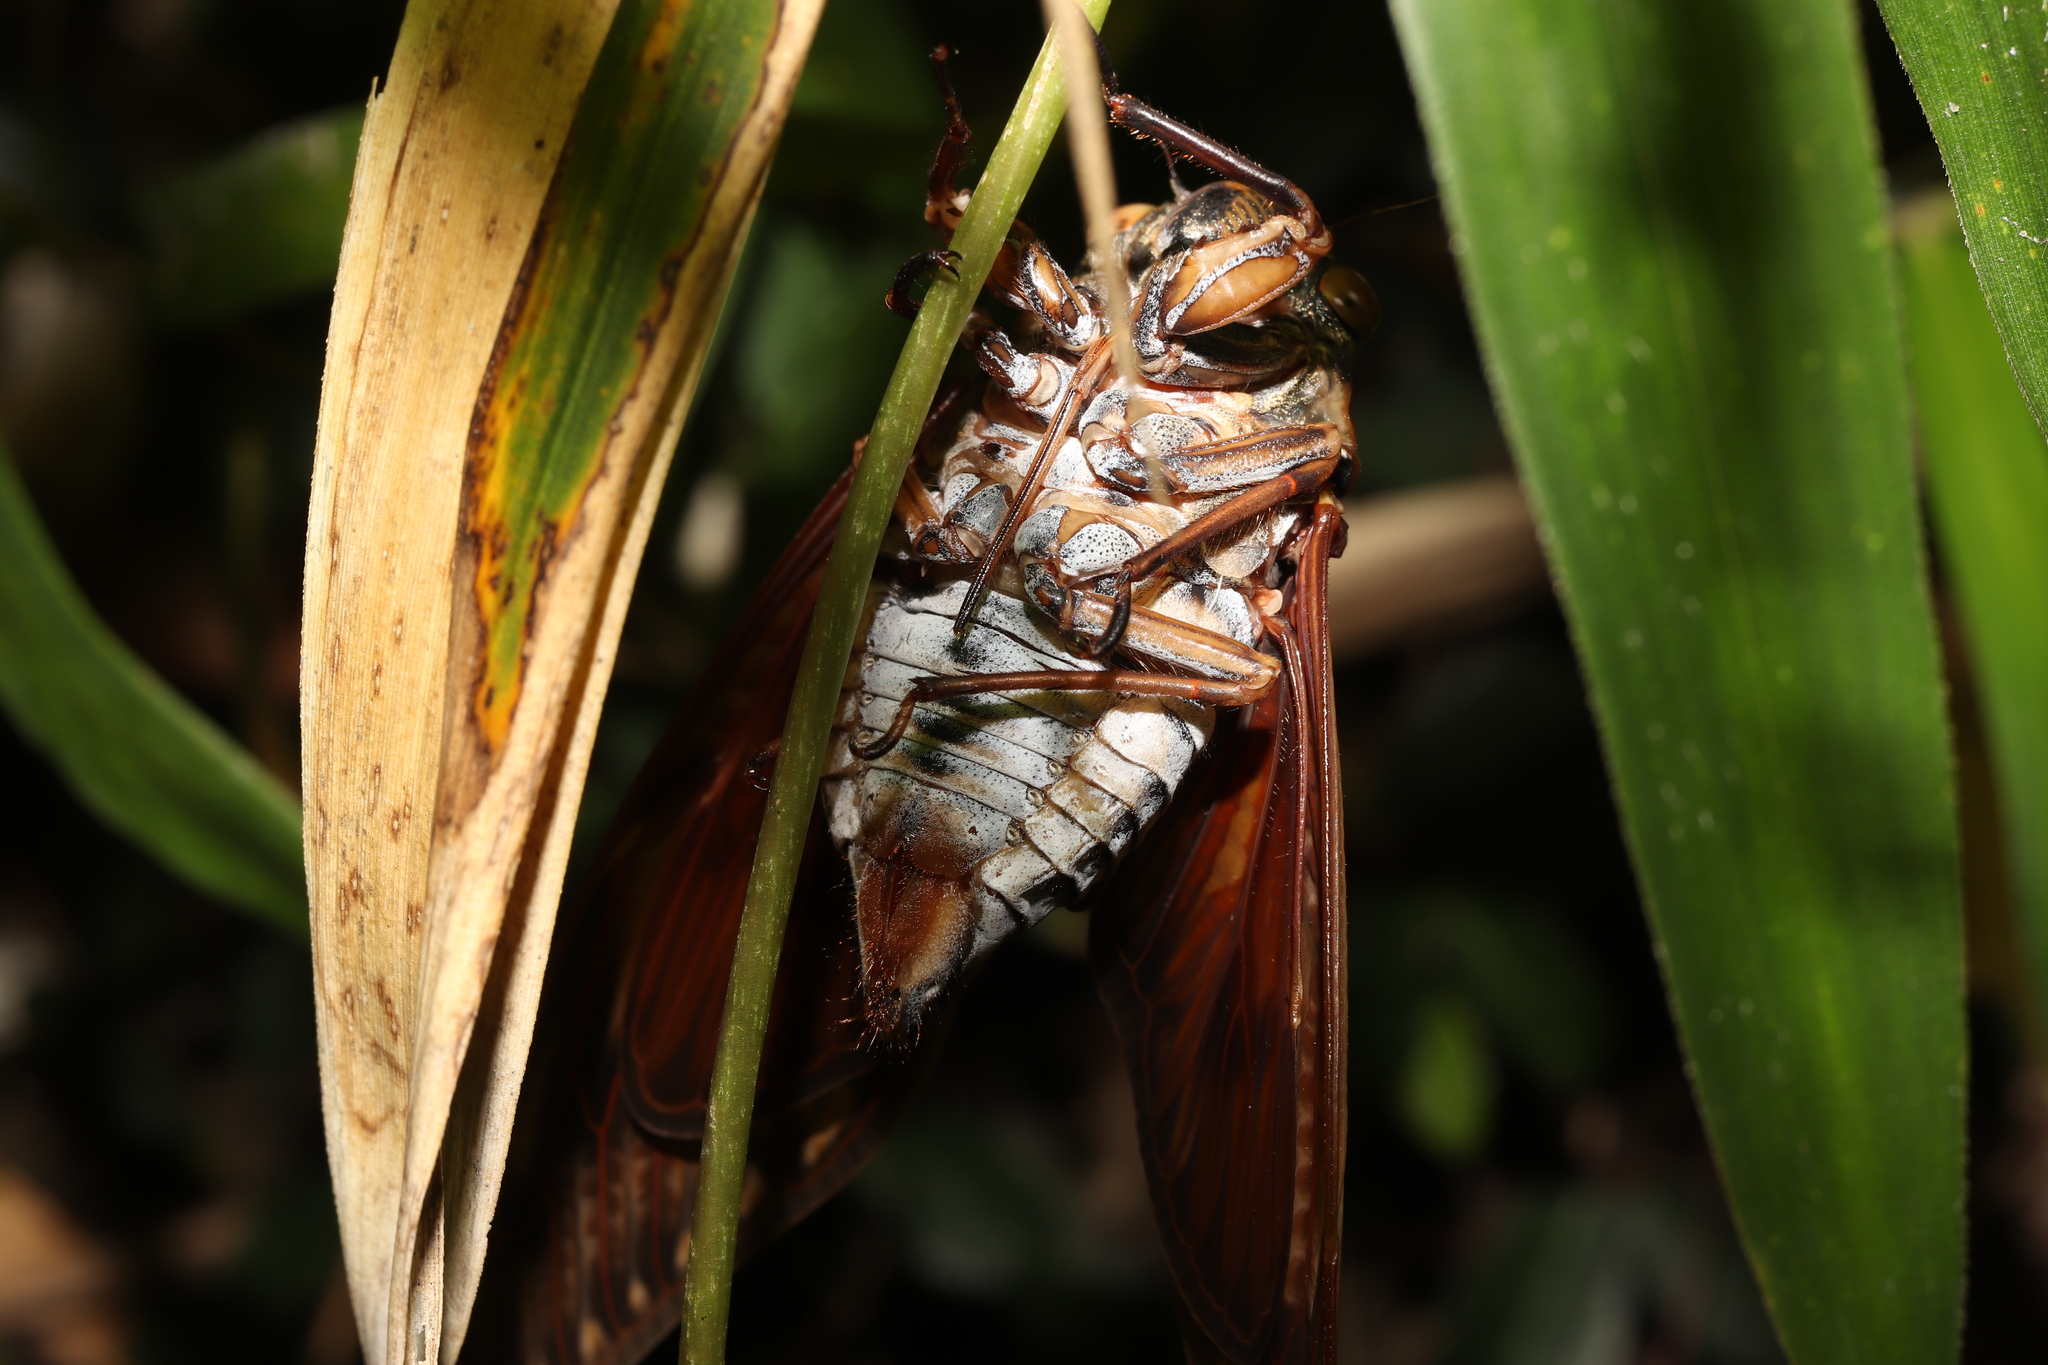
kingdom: Animalia
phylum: Arthropoda
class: Insecta
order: Hemiptera
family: Cicadidae
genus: Graptopsaltria
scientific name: Graptopsaltria nigrofuscata
